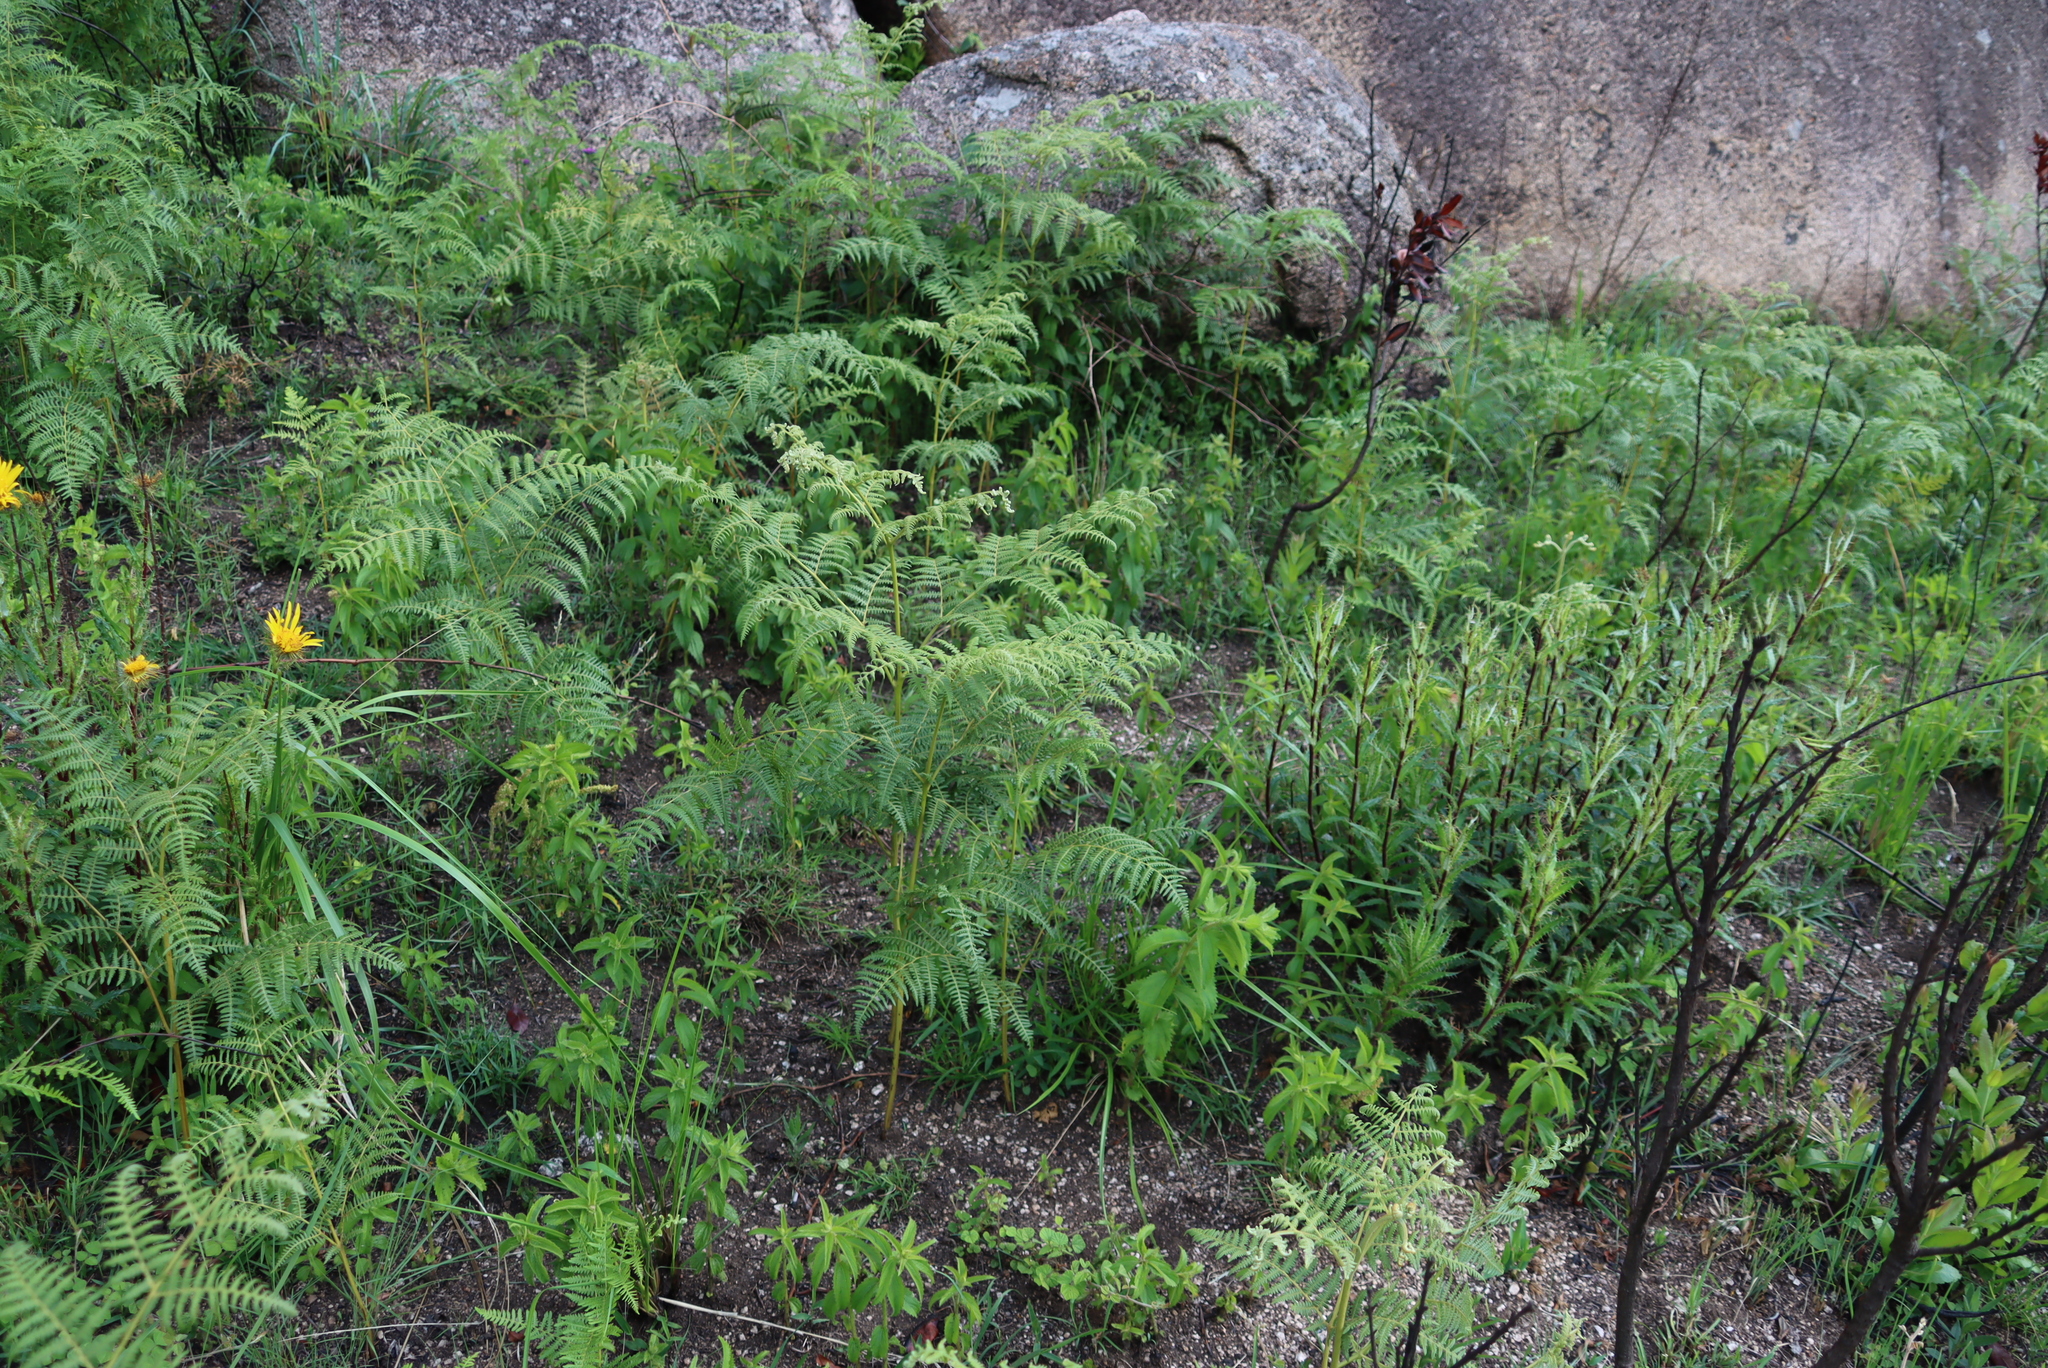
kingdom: Plantae
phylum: Tracheophyta
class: Polypodiopsida
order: Polypodiales
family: Dennstaedtiaceae
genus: Pteridium
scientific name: Pteridium aquilinum
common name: Bracken
